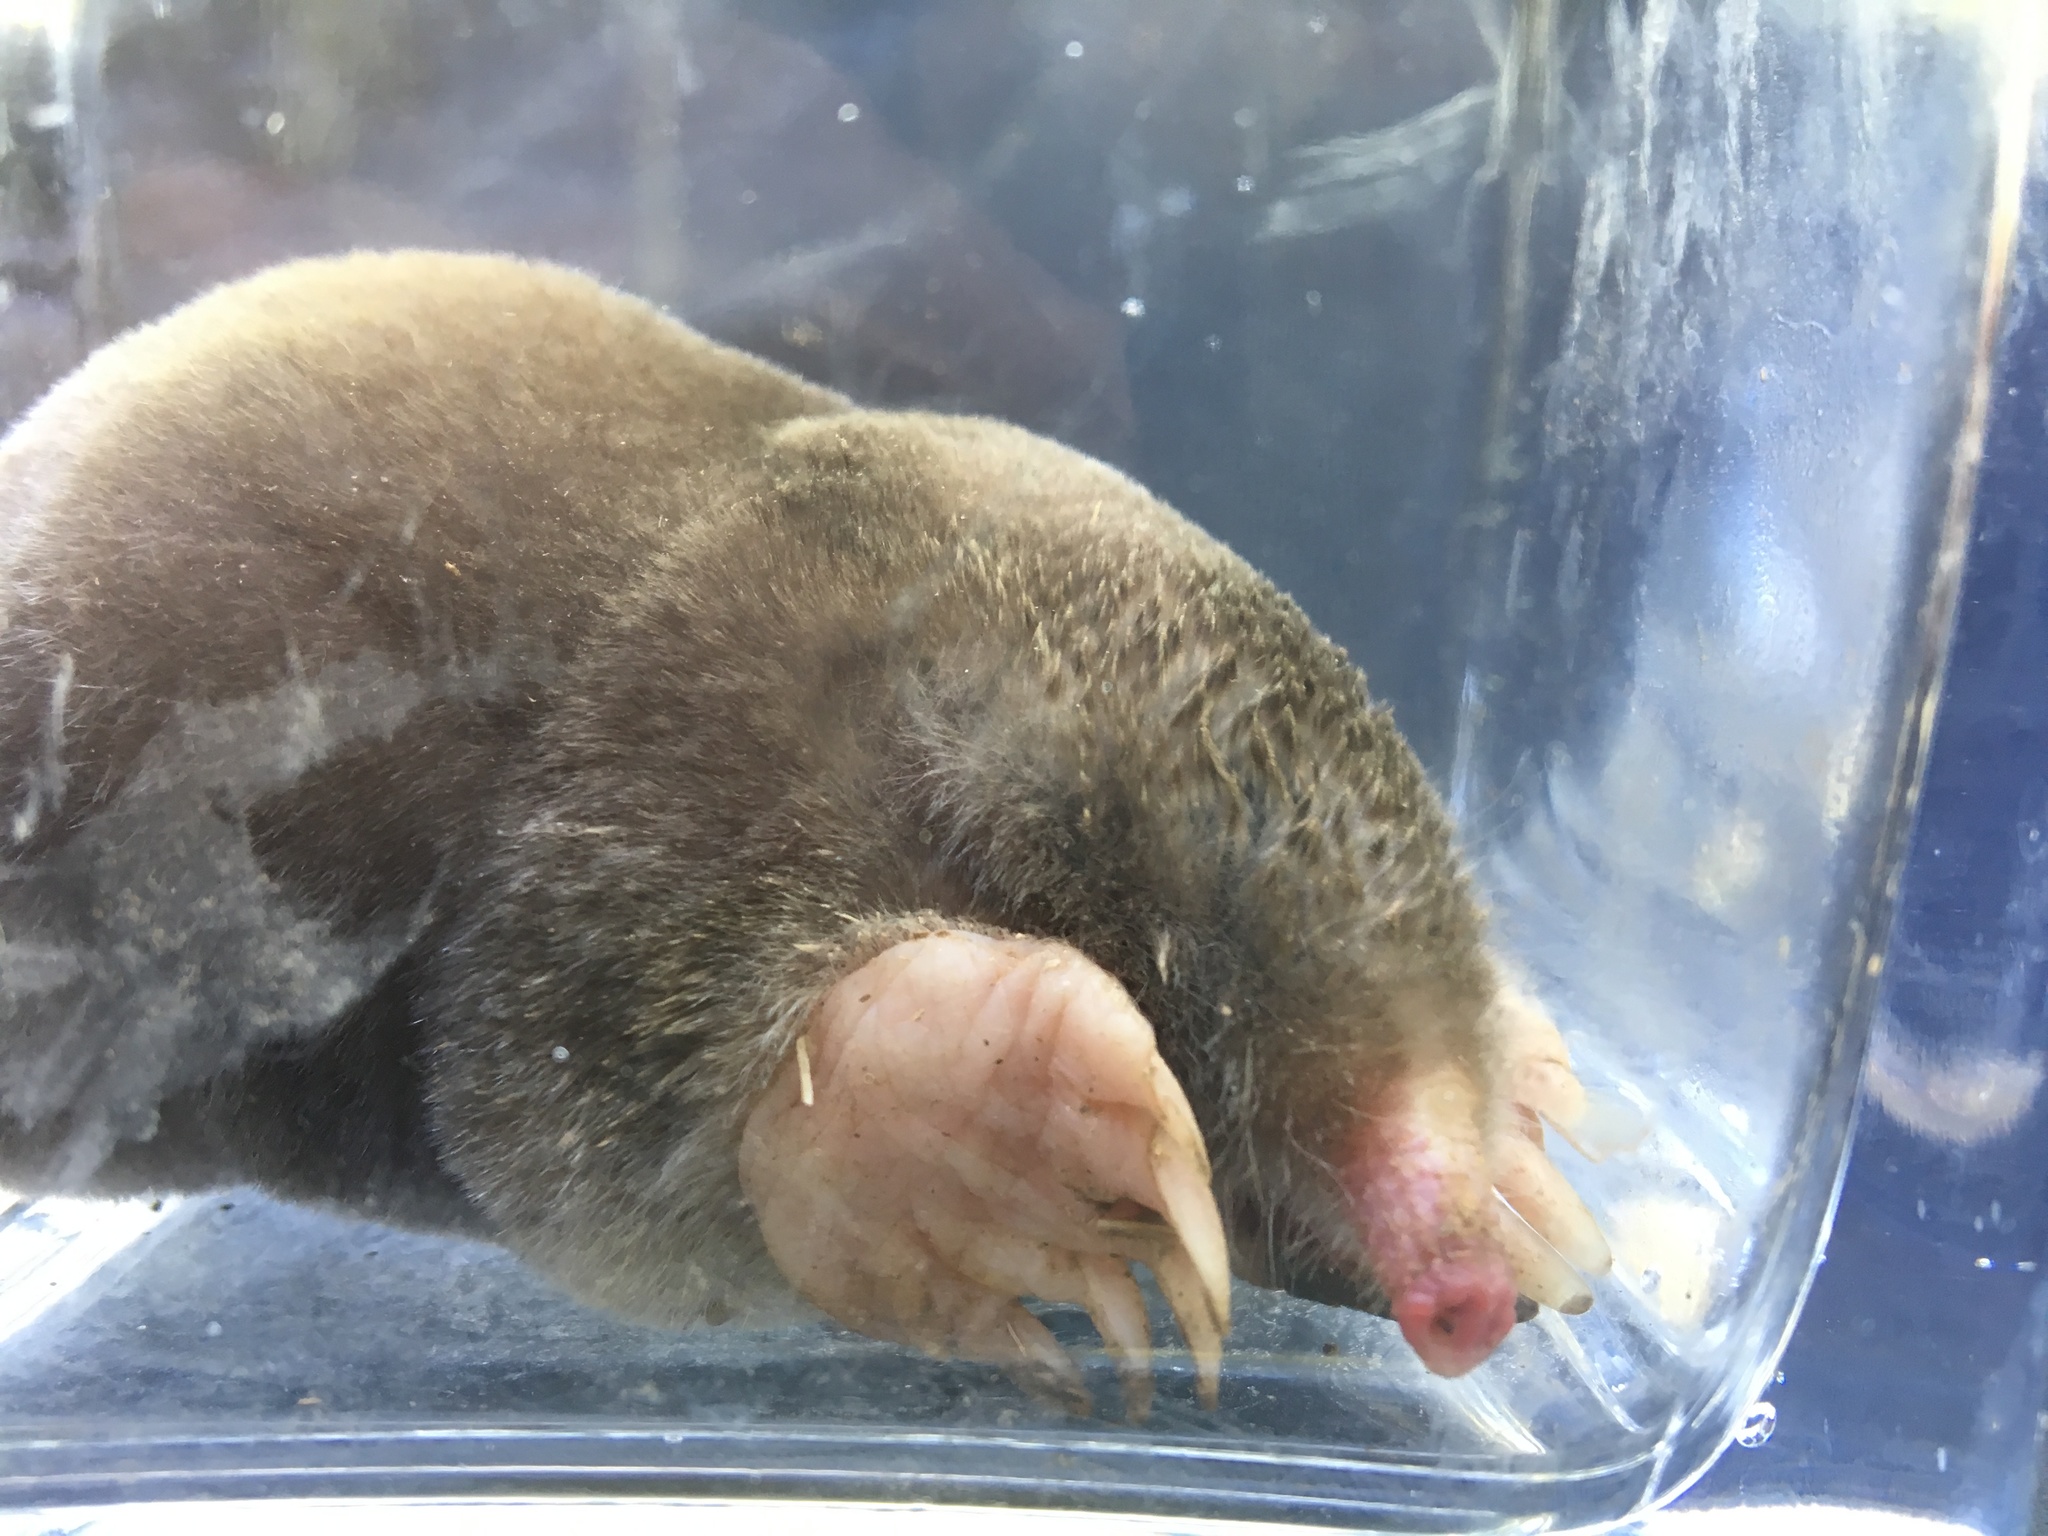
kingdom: Animalia
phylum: Chordata
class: Mammalia
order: Soricomorpha
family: Talpidae
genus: Scalopus
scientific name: Scalopus aquaticus
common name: Eastern mole
